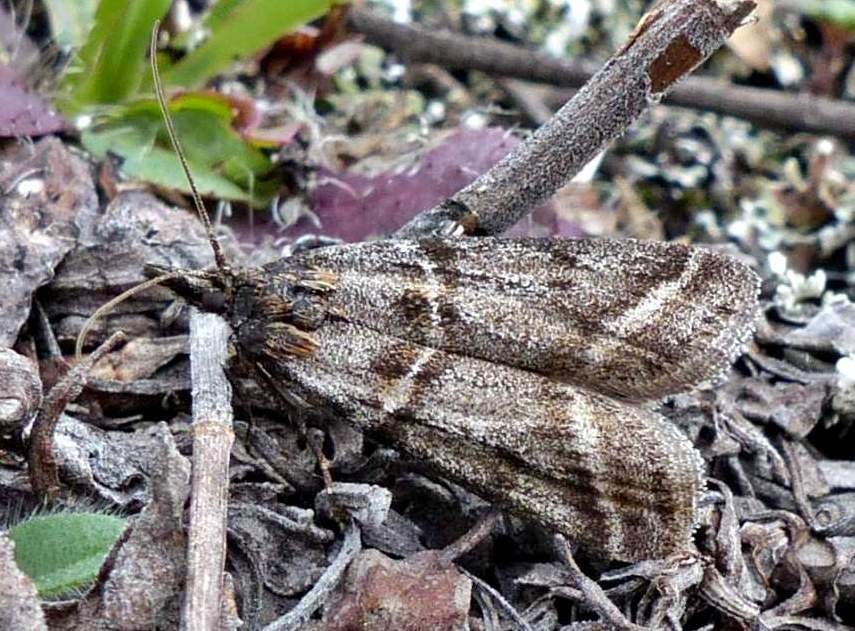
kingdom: Animalia
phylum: Arthropoda
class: Insecta
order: Lepidoptera
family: Pyralidae
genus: Sarata
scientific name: Sarata caudellella
